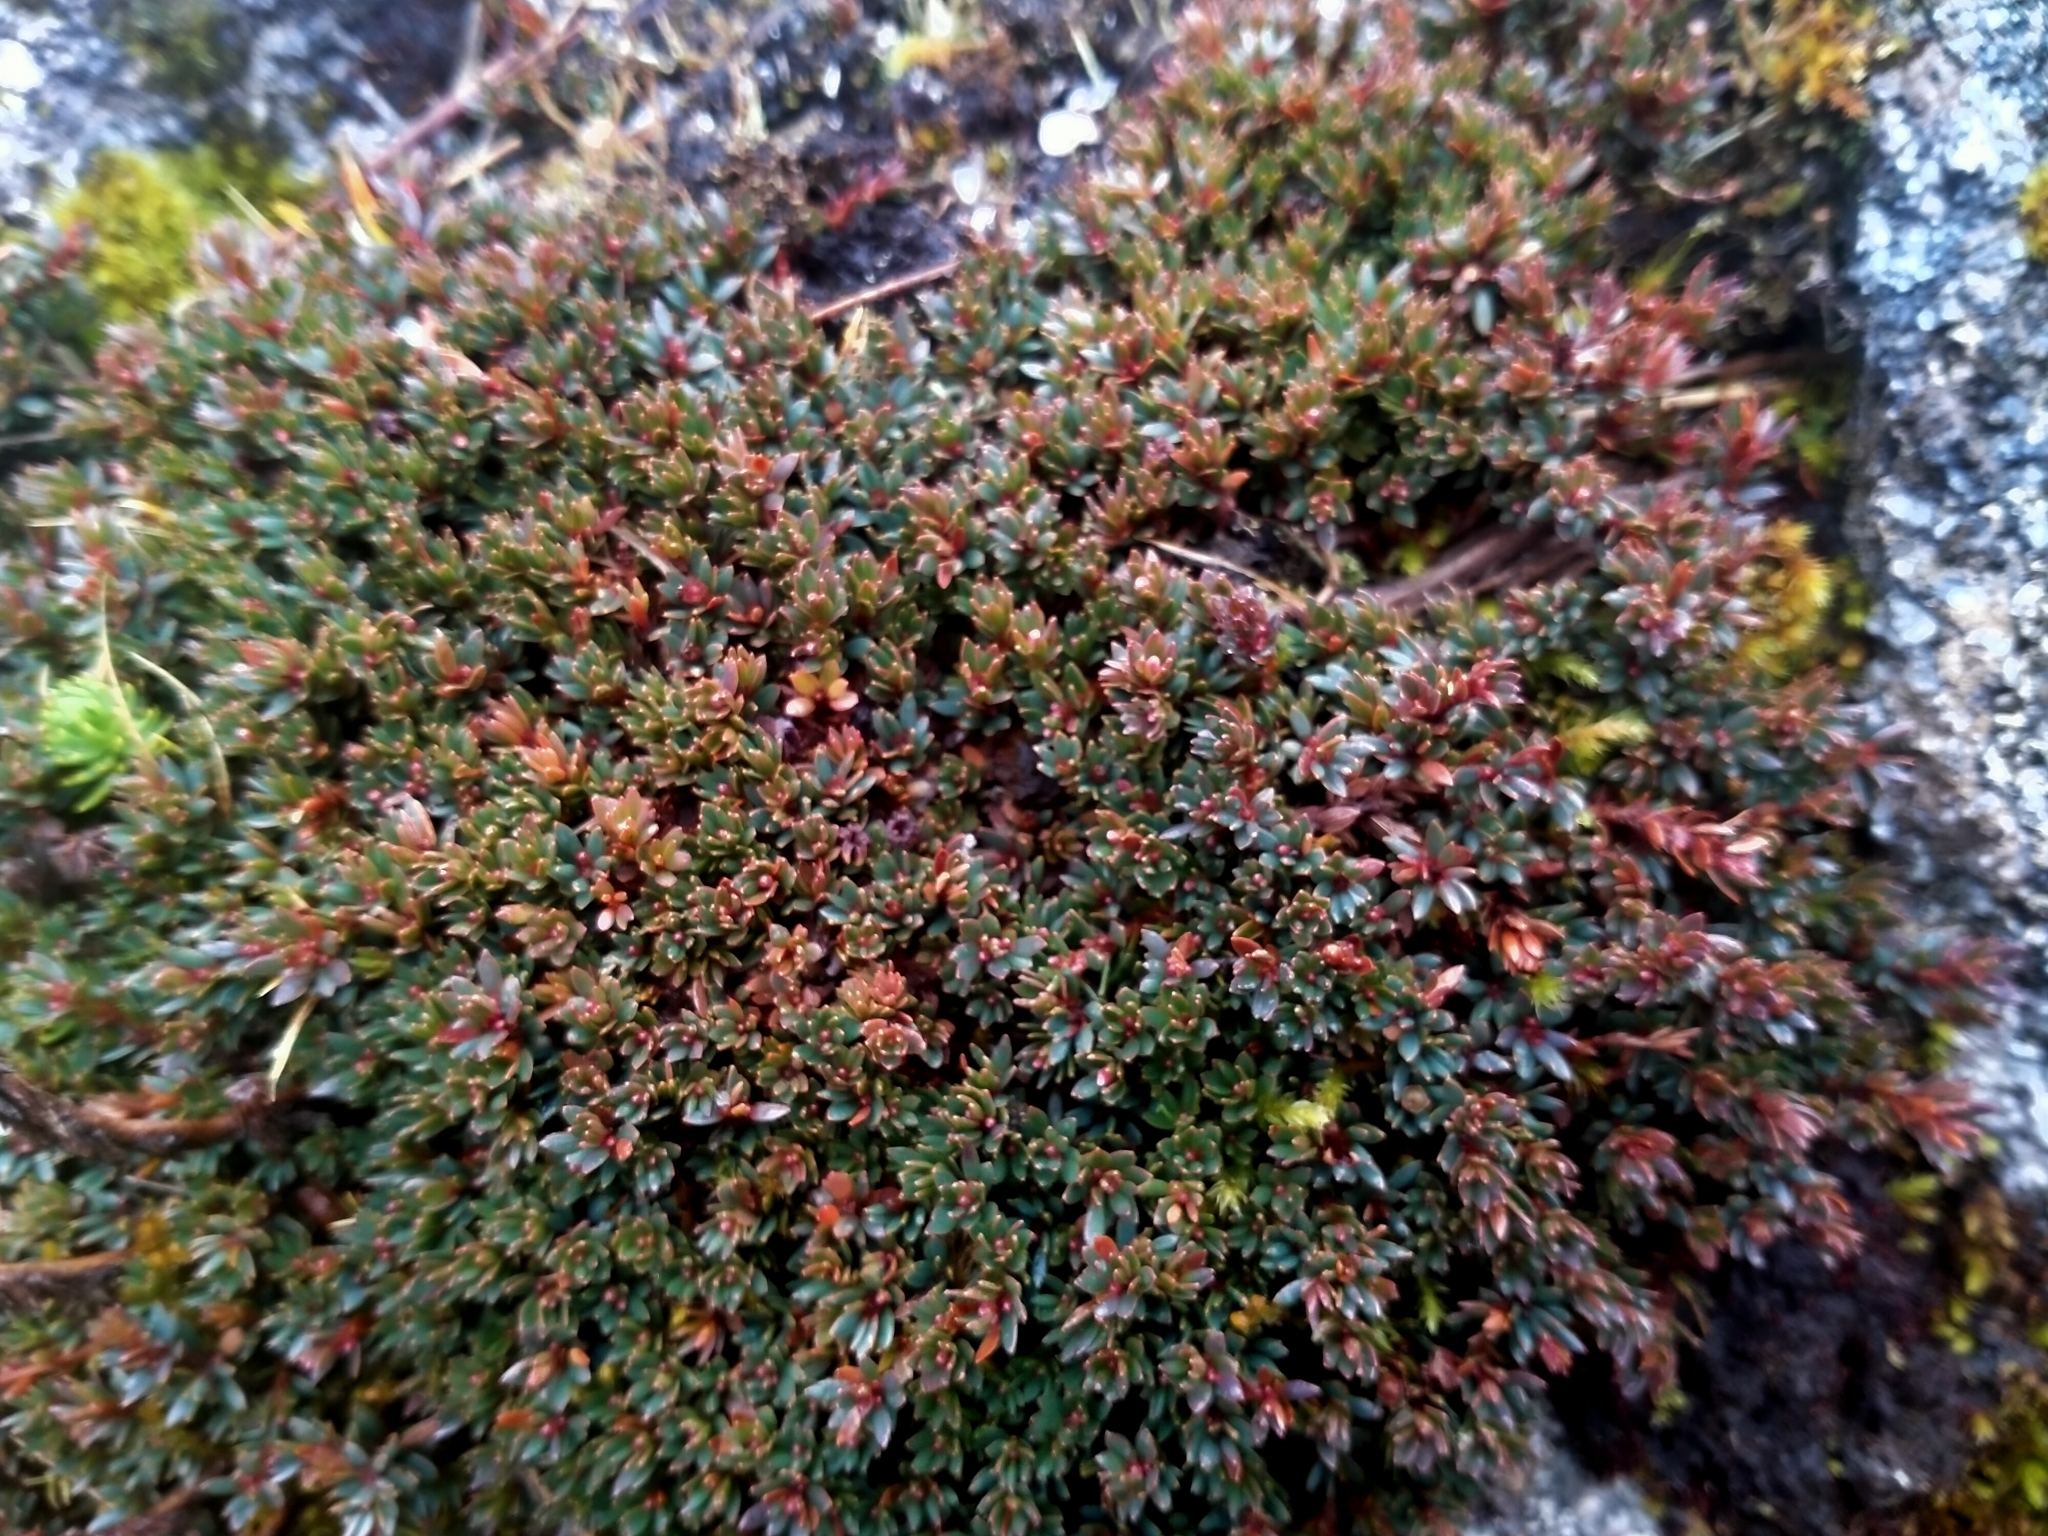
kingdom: Plantae
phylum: Tracheophyta
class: Magnoliopsida
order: Ericales
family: Ericaceae
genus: Pentachondra
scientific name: Pentachondra pumila
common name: Carpet-heath
